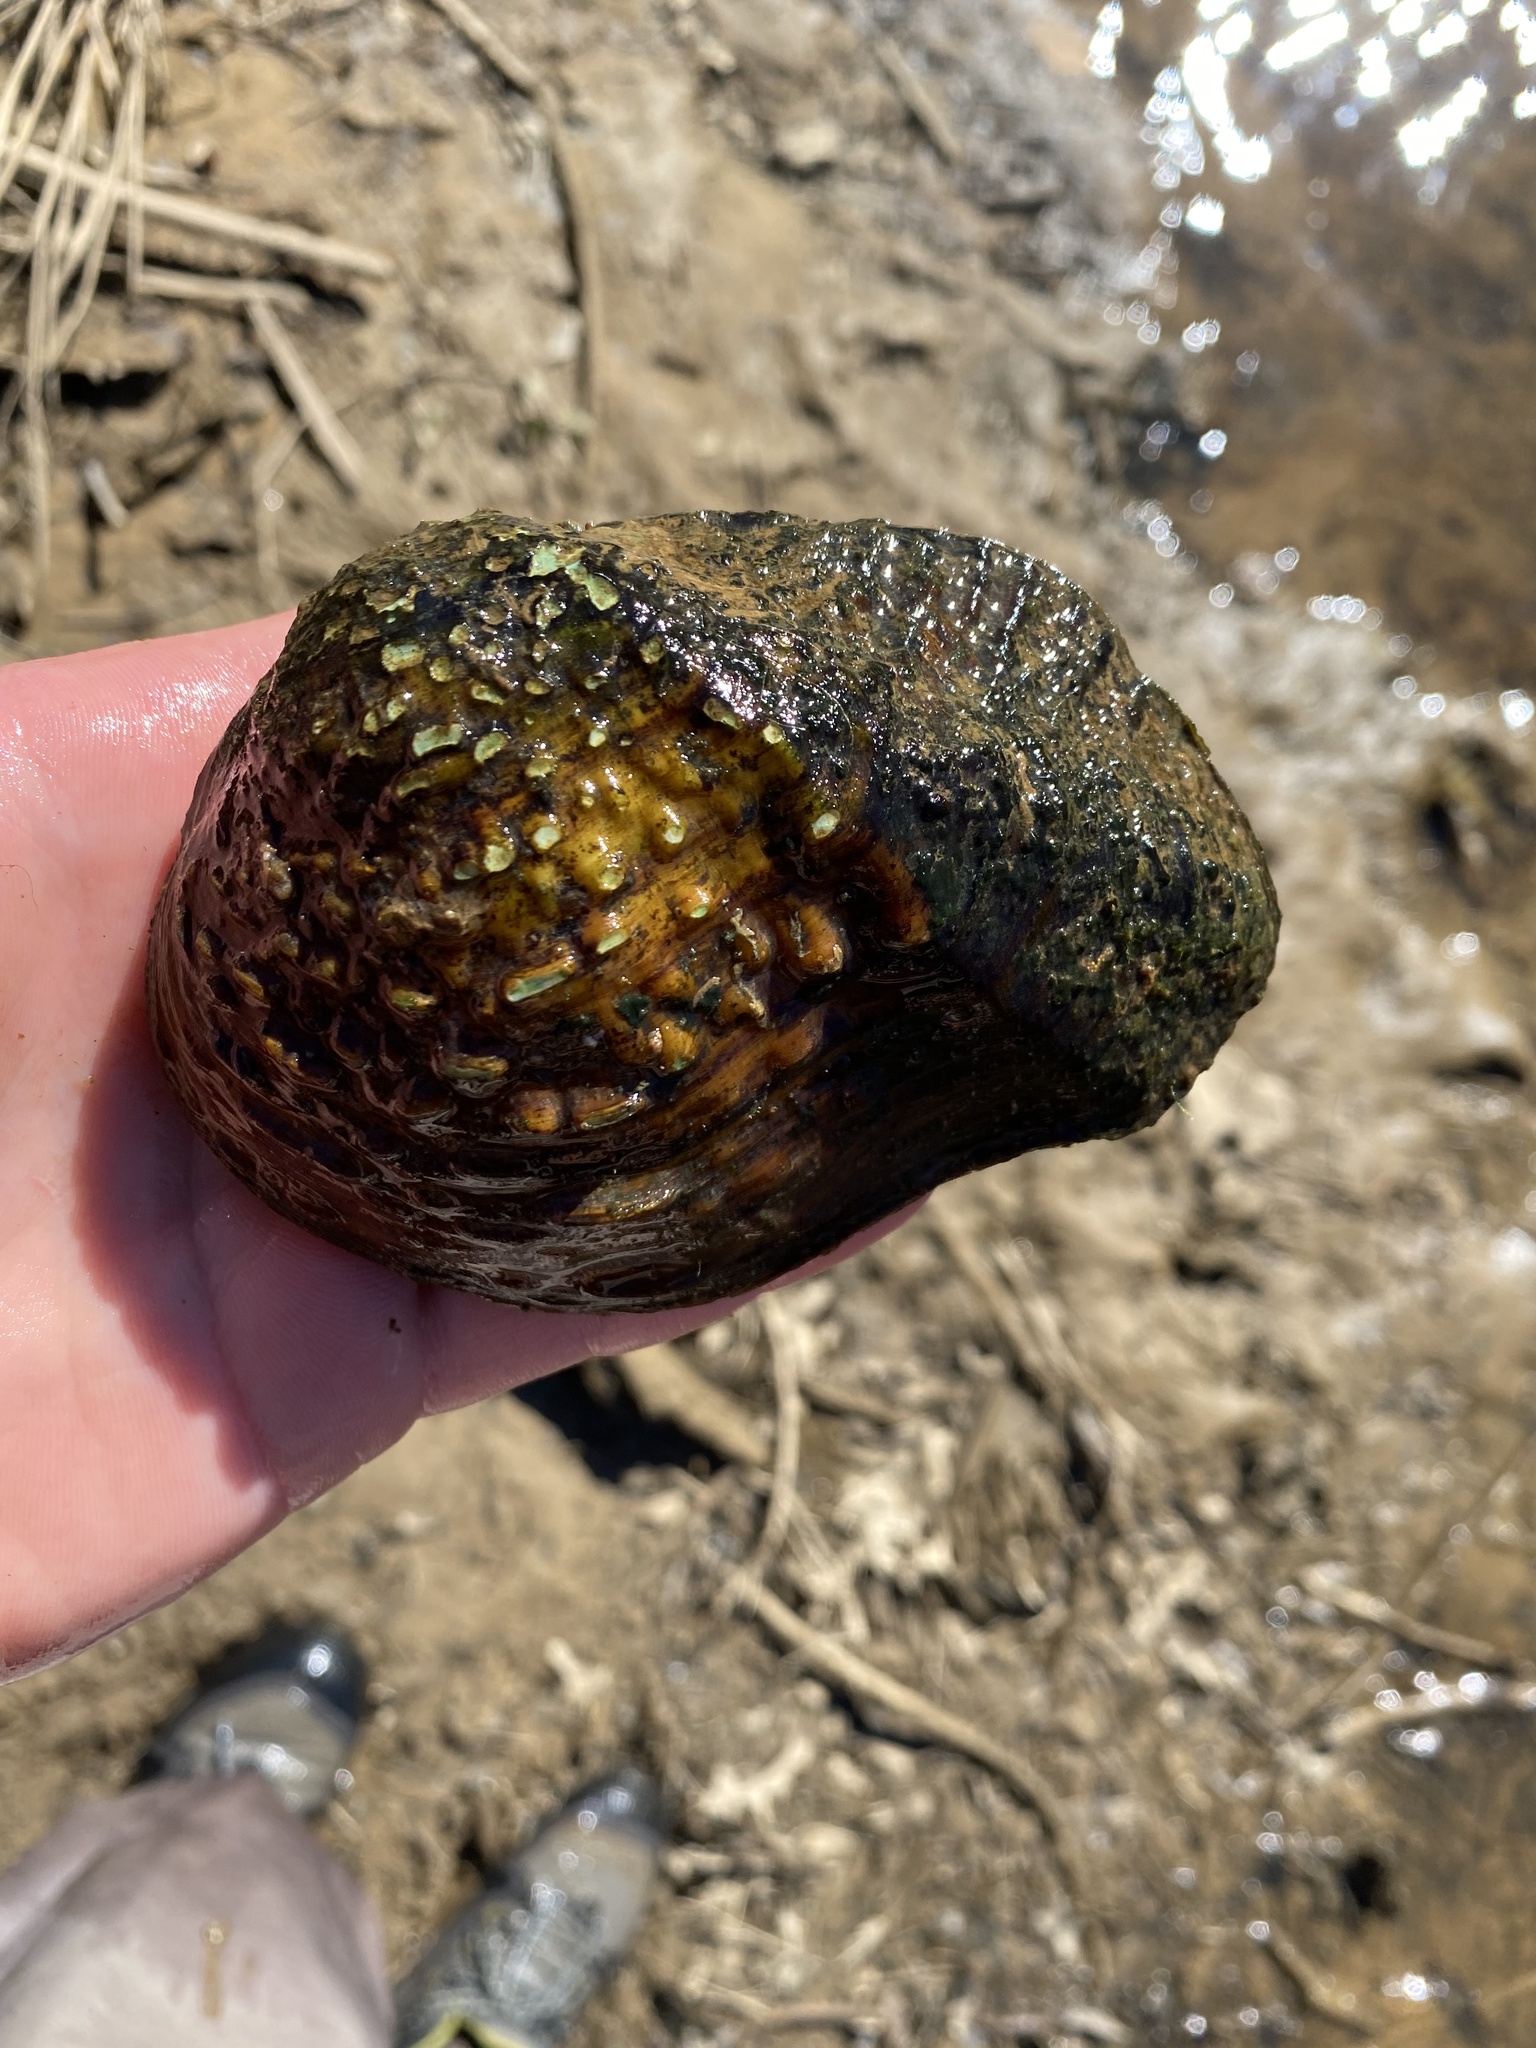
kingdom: Animalia
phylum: Mollusca
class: Bivalvia
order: Unionida
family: Unionidae
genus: Quadrula
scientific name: Quadrula quadrula
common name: Mapleleaf
